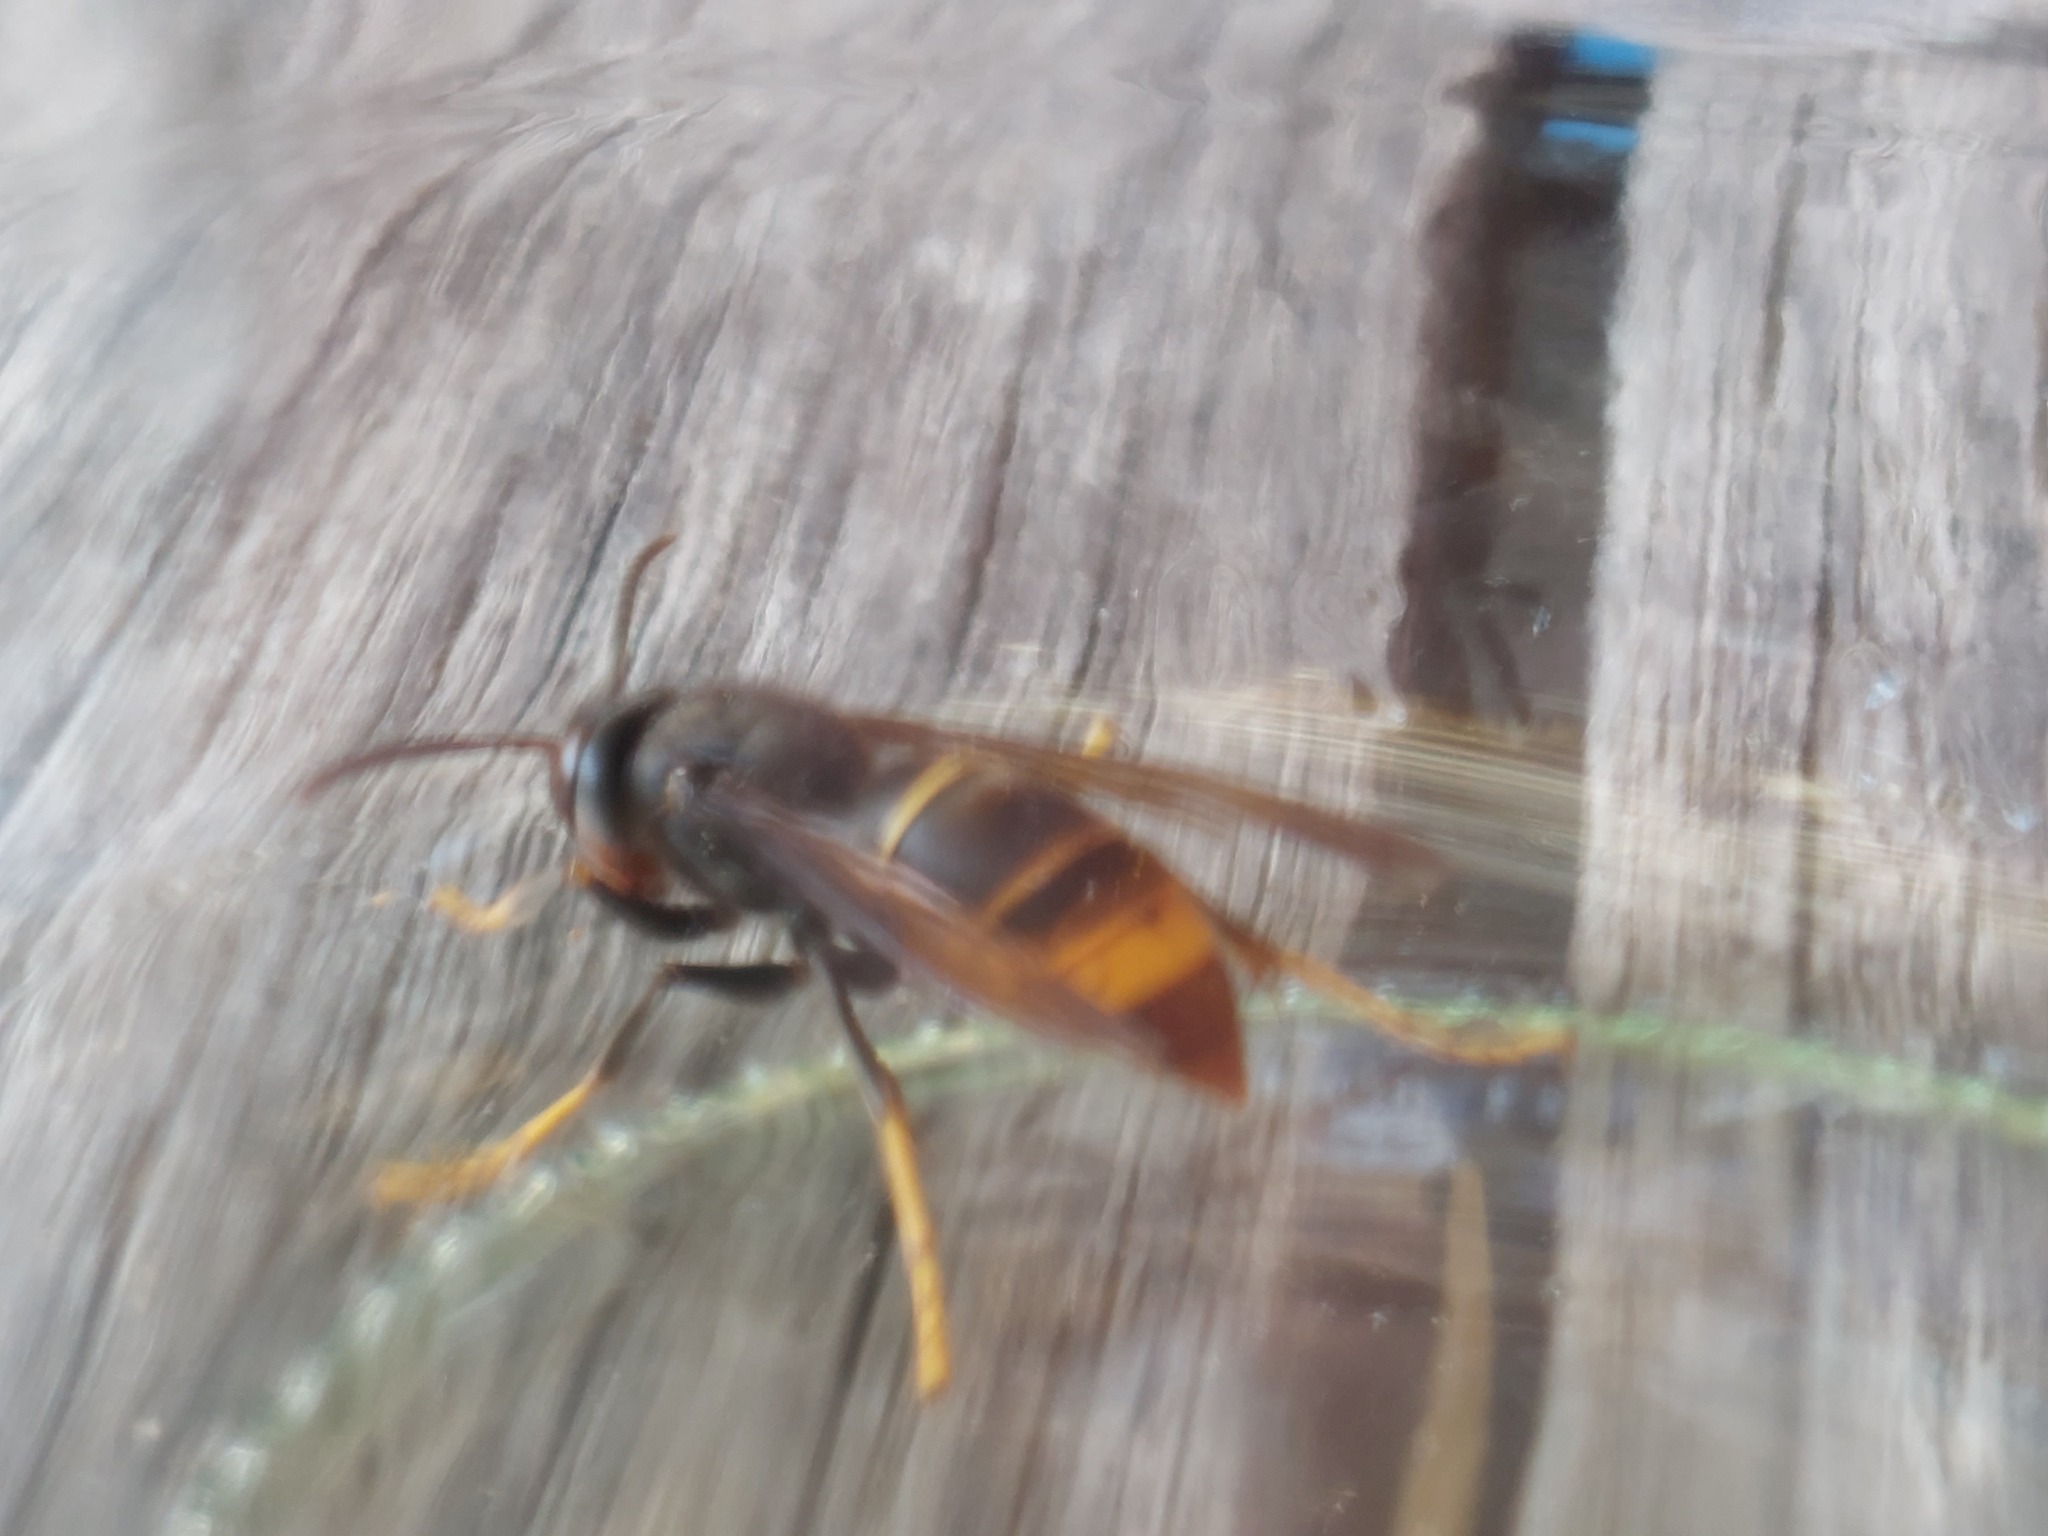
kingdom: Animalia
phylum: Arthropoda
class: Insecta
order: Hymenoptera
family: Vespidae
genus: Vespa
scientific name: Vespa velutina
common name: Asian hornet
